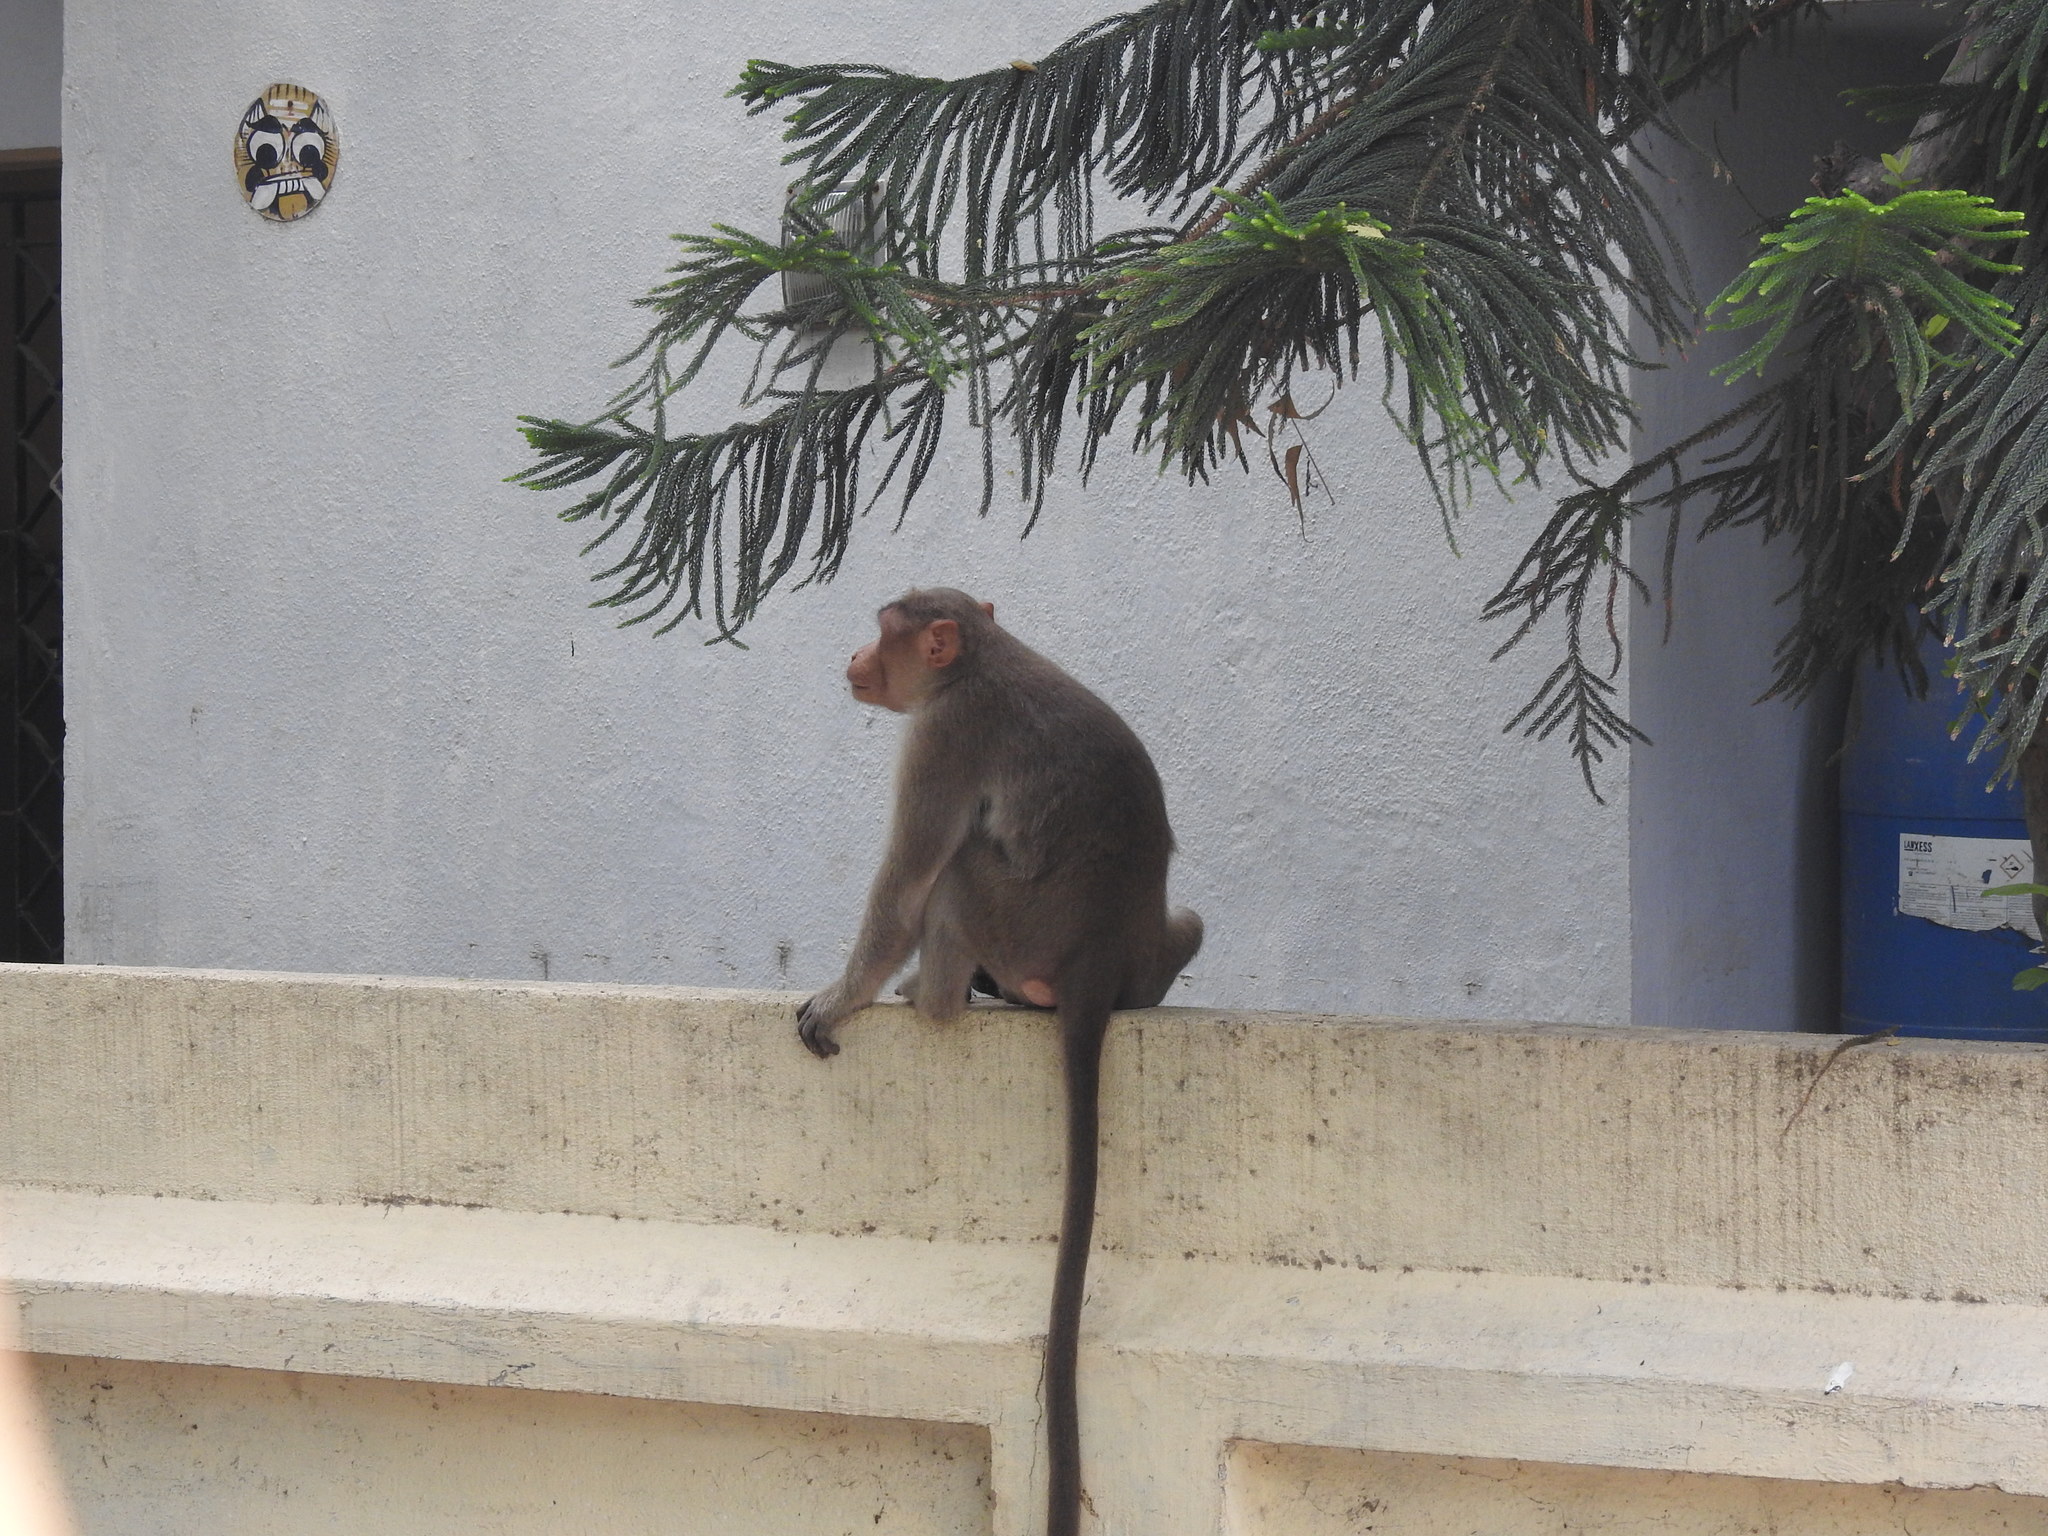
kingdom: Animalia
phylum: Chordata
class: Mammalia
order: Primates
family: Cercopithecidae
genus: Macaca
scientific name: Macaca radiata
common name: Bonnet macaque
